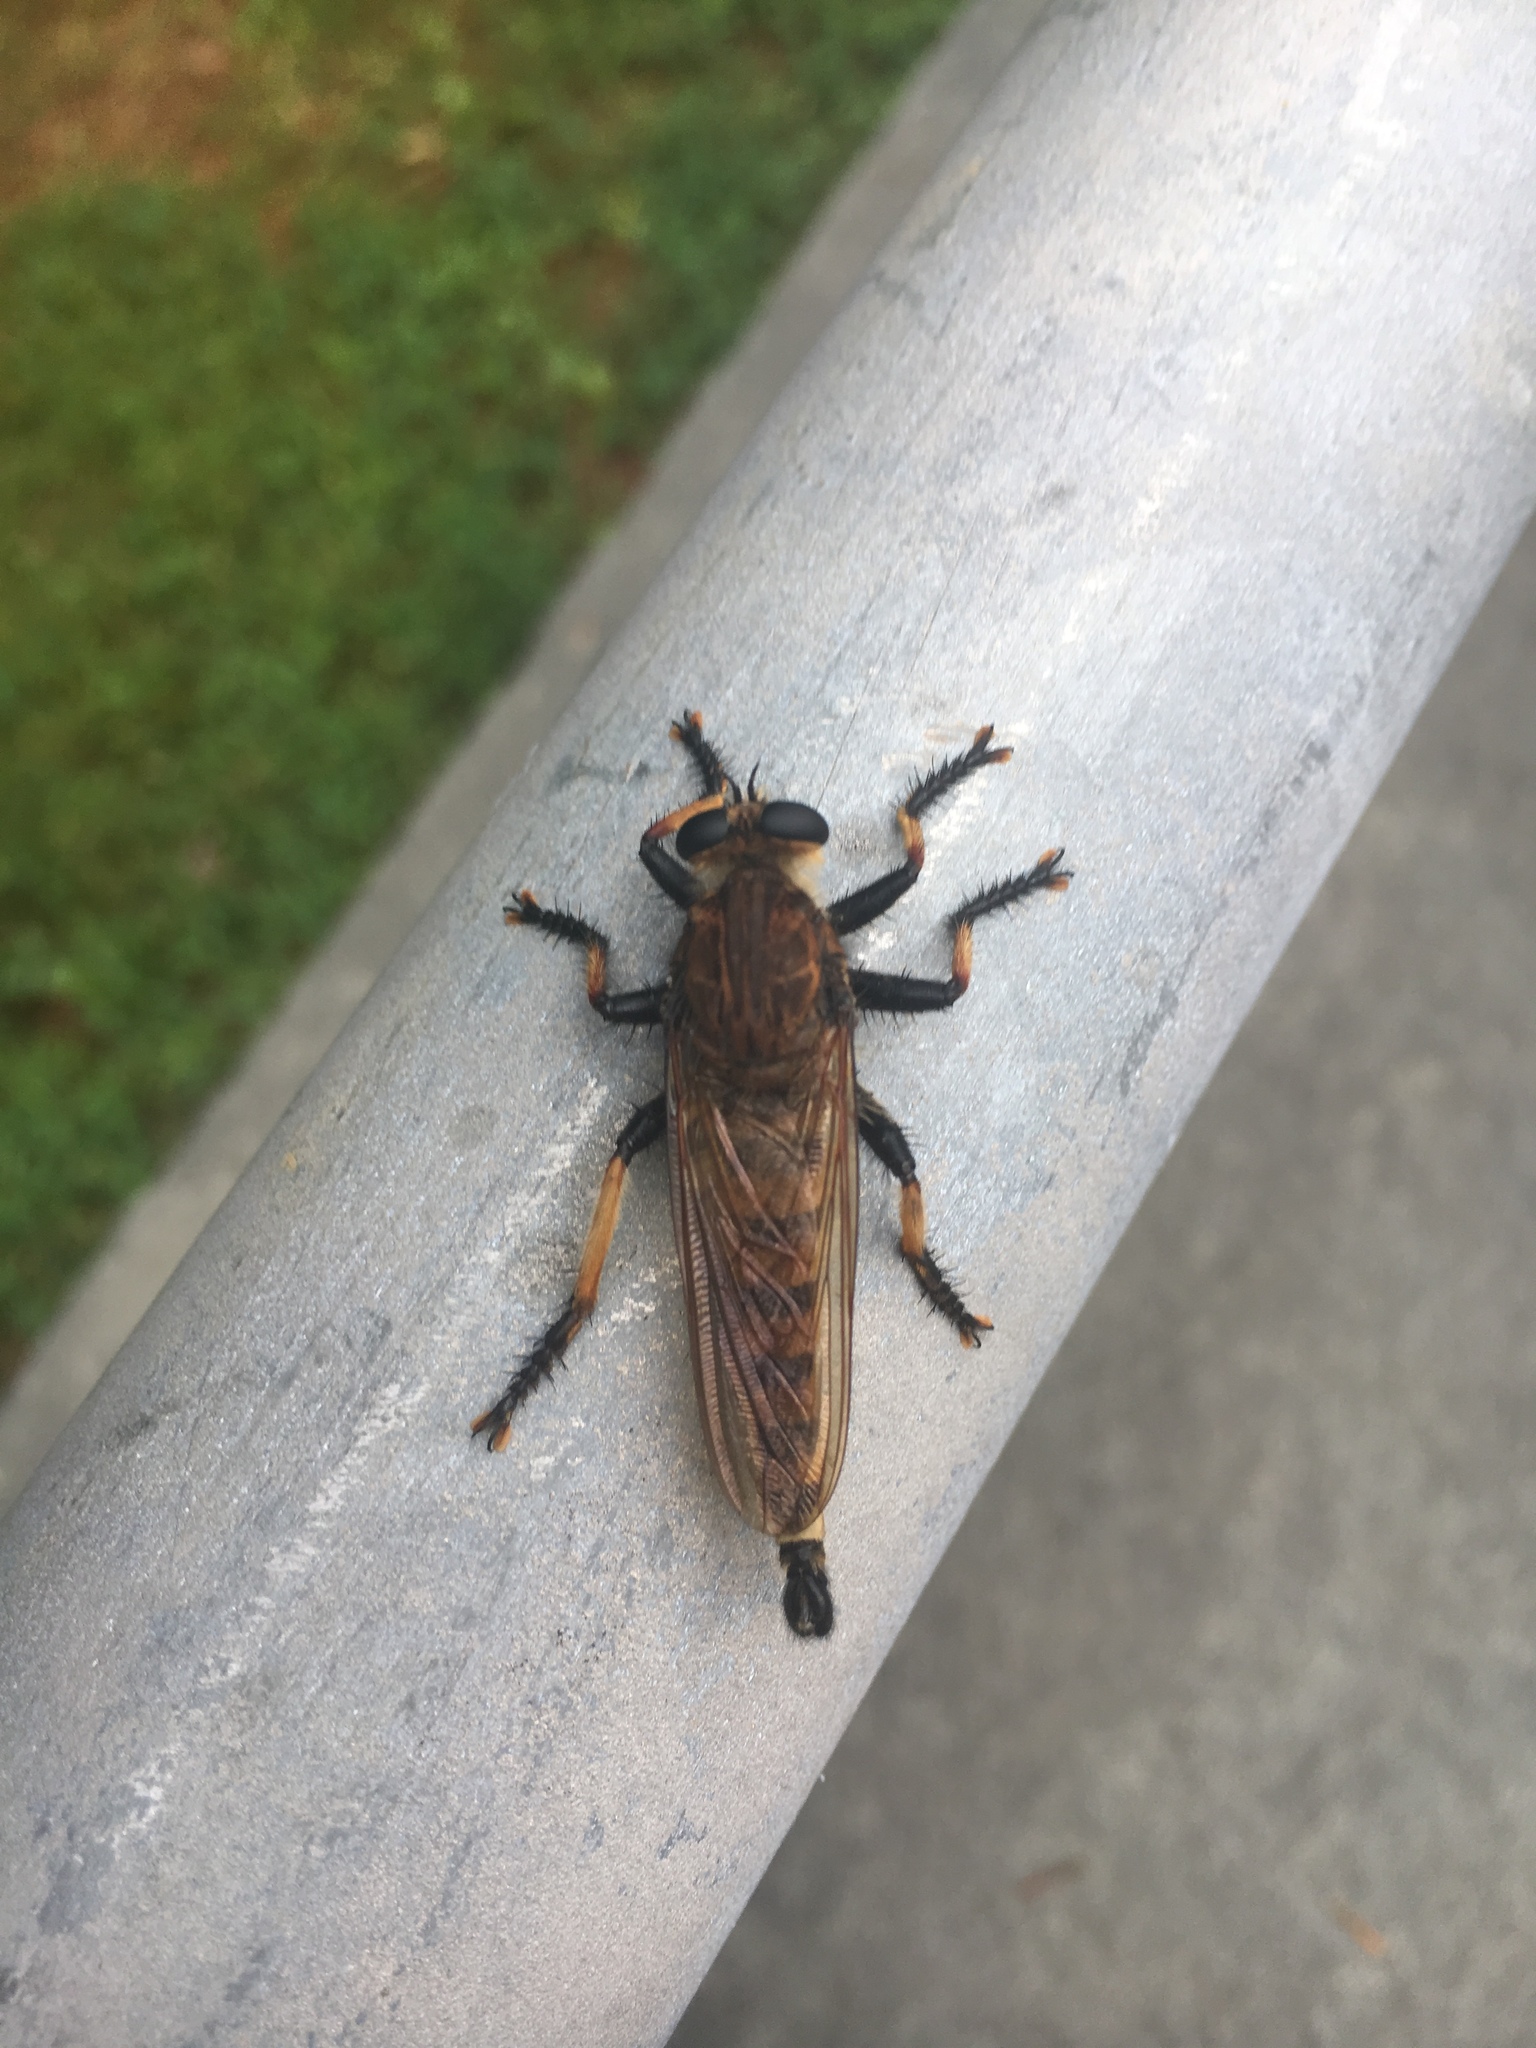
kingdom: Animalia
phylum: Arthropoda
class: Insecta
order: Diptera
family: Asilidae
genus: Promachus
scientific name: Promachus rufipes
